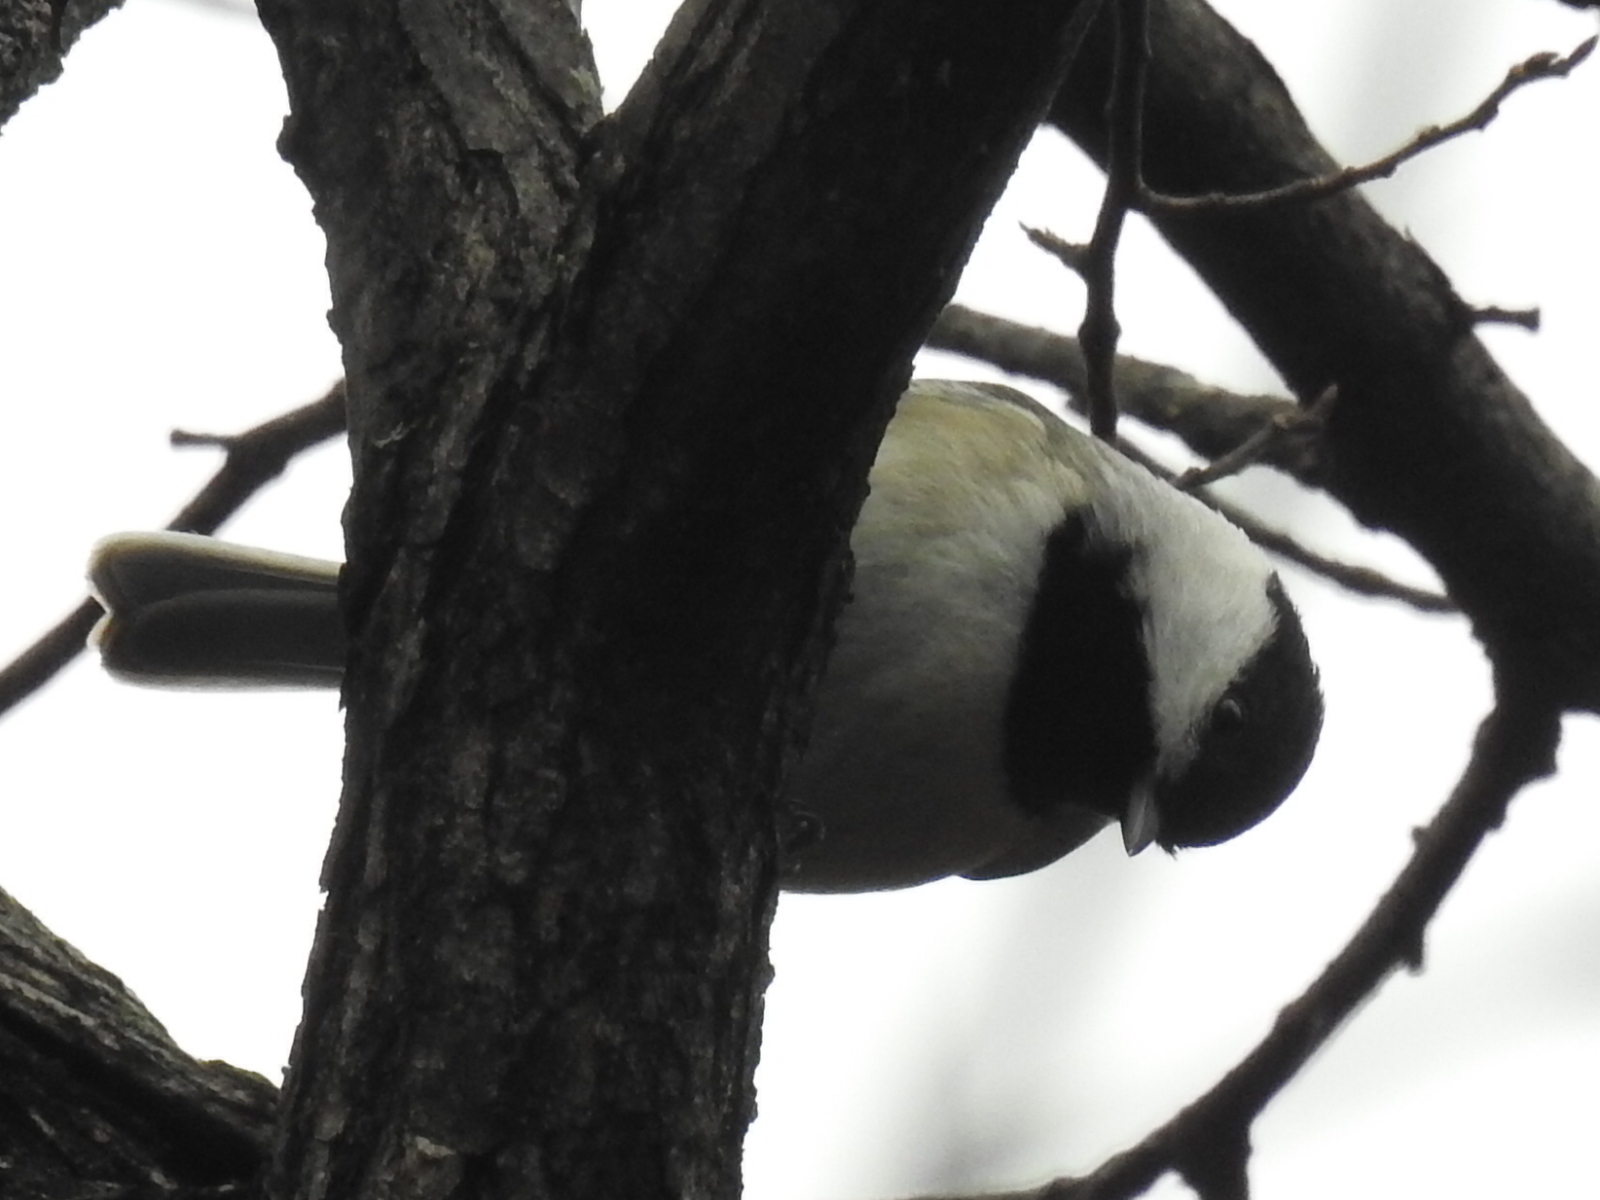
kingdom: Animalia
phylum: Chordata
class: Aves
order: Passeriformes
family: Paridae
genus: Poecile
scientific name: Poecile carolinensis
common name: Carolina chickadee
